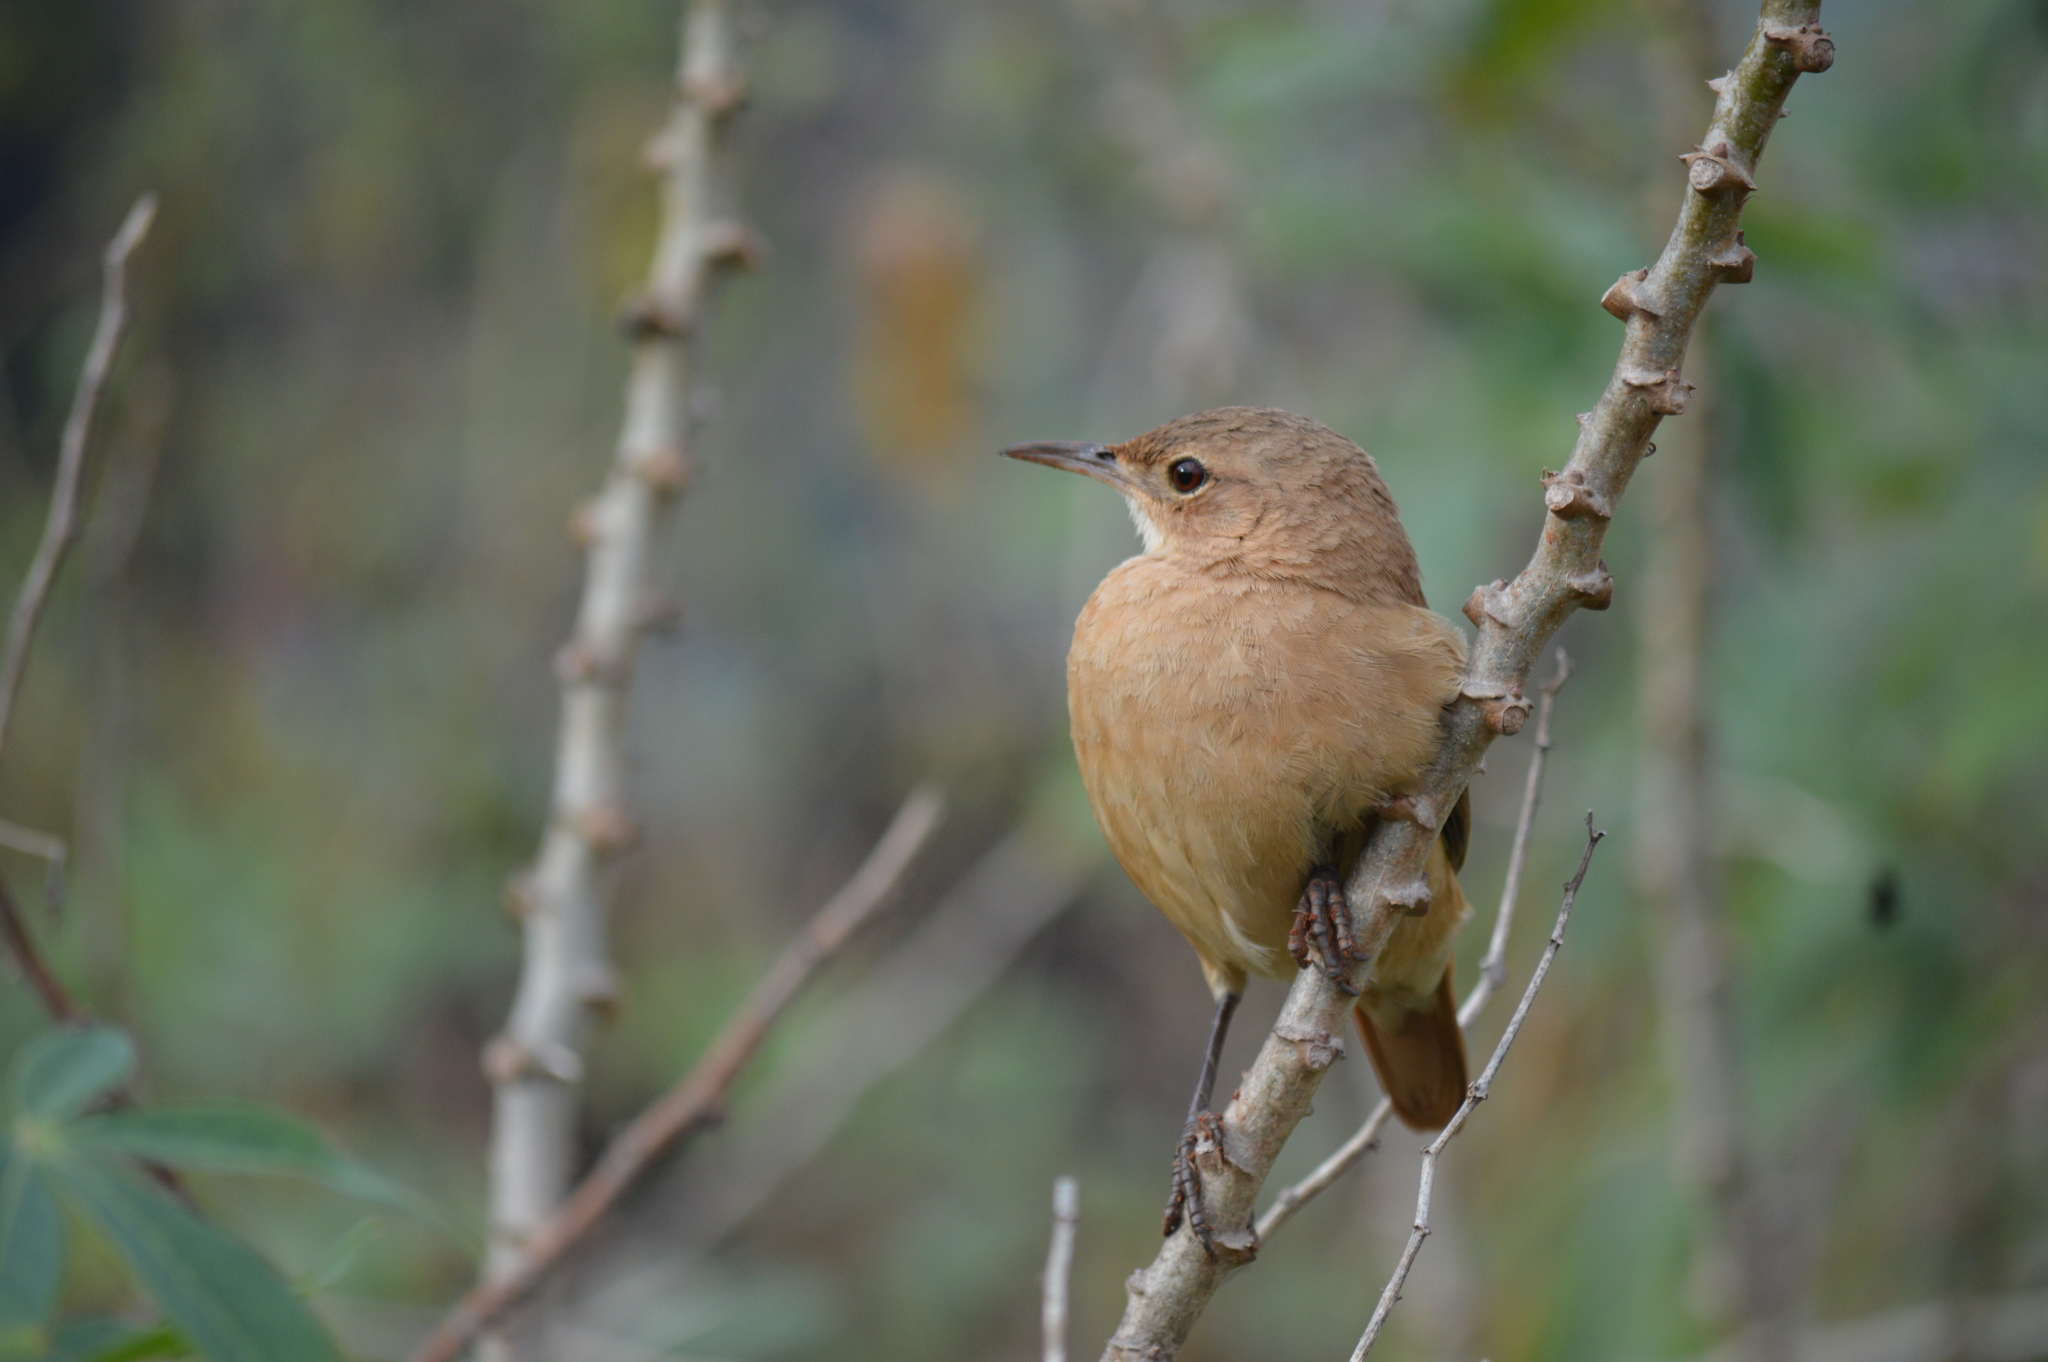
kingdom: Animalia
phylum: Chordata
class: Aves
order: Passeriformes
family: Furnariidae
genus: Furnarius
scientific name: Furnarius rufus
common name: Rufous hornero
